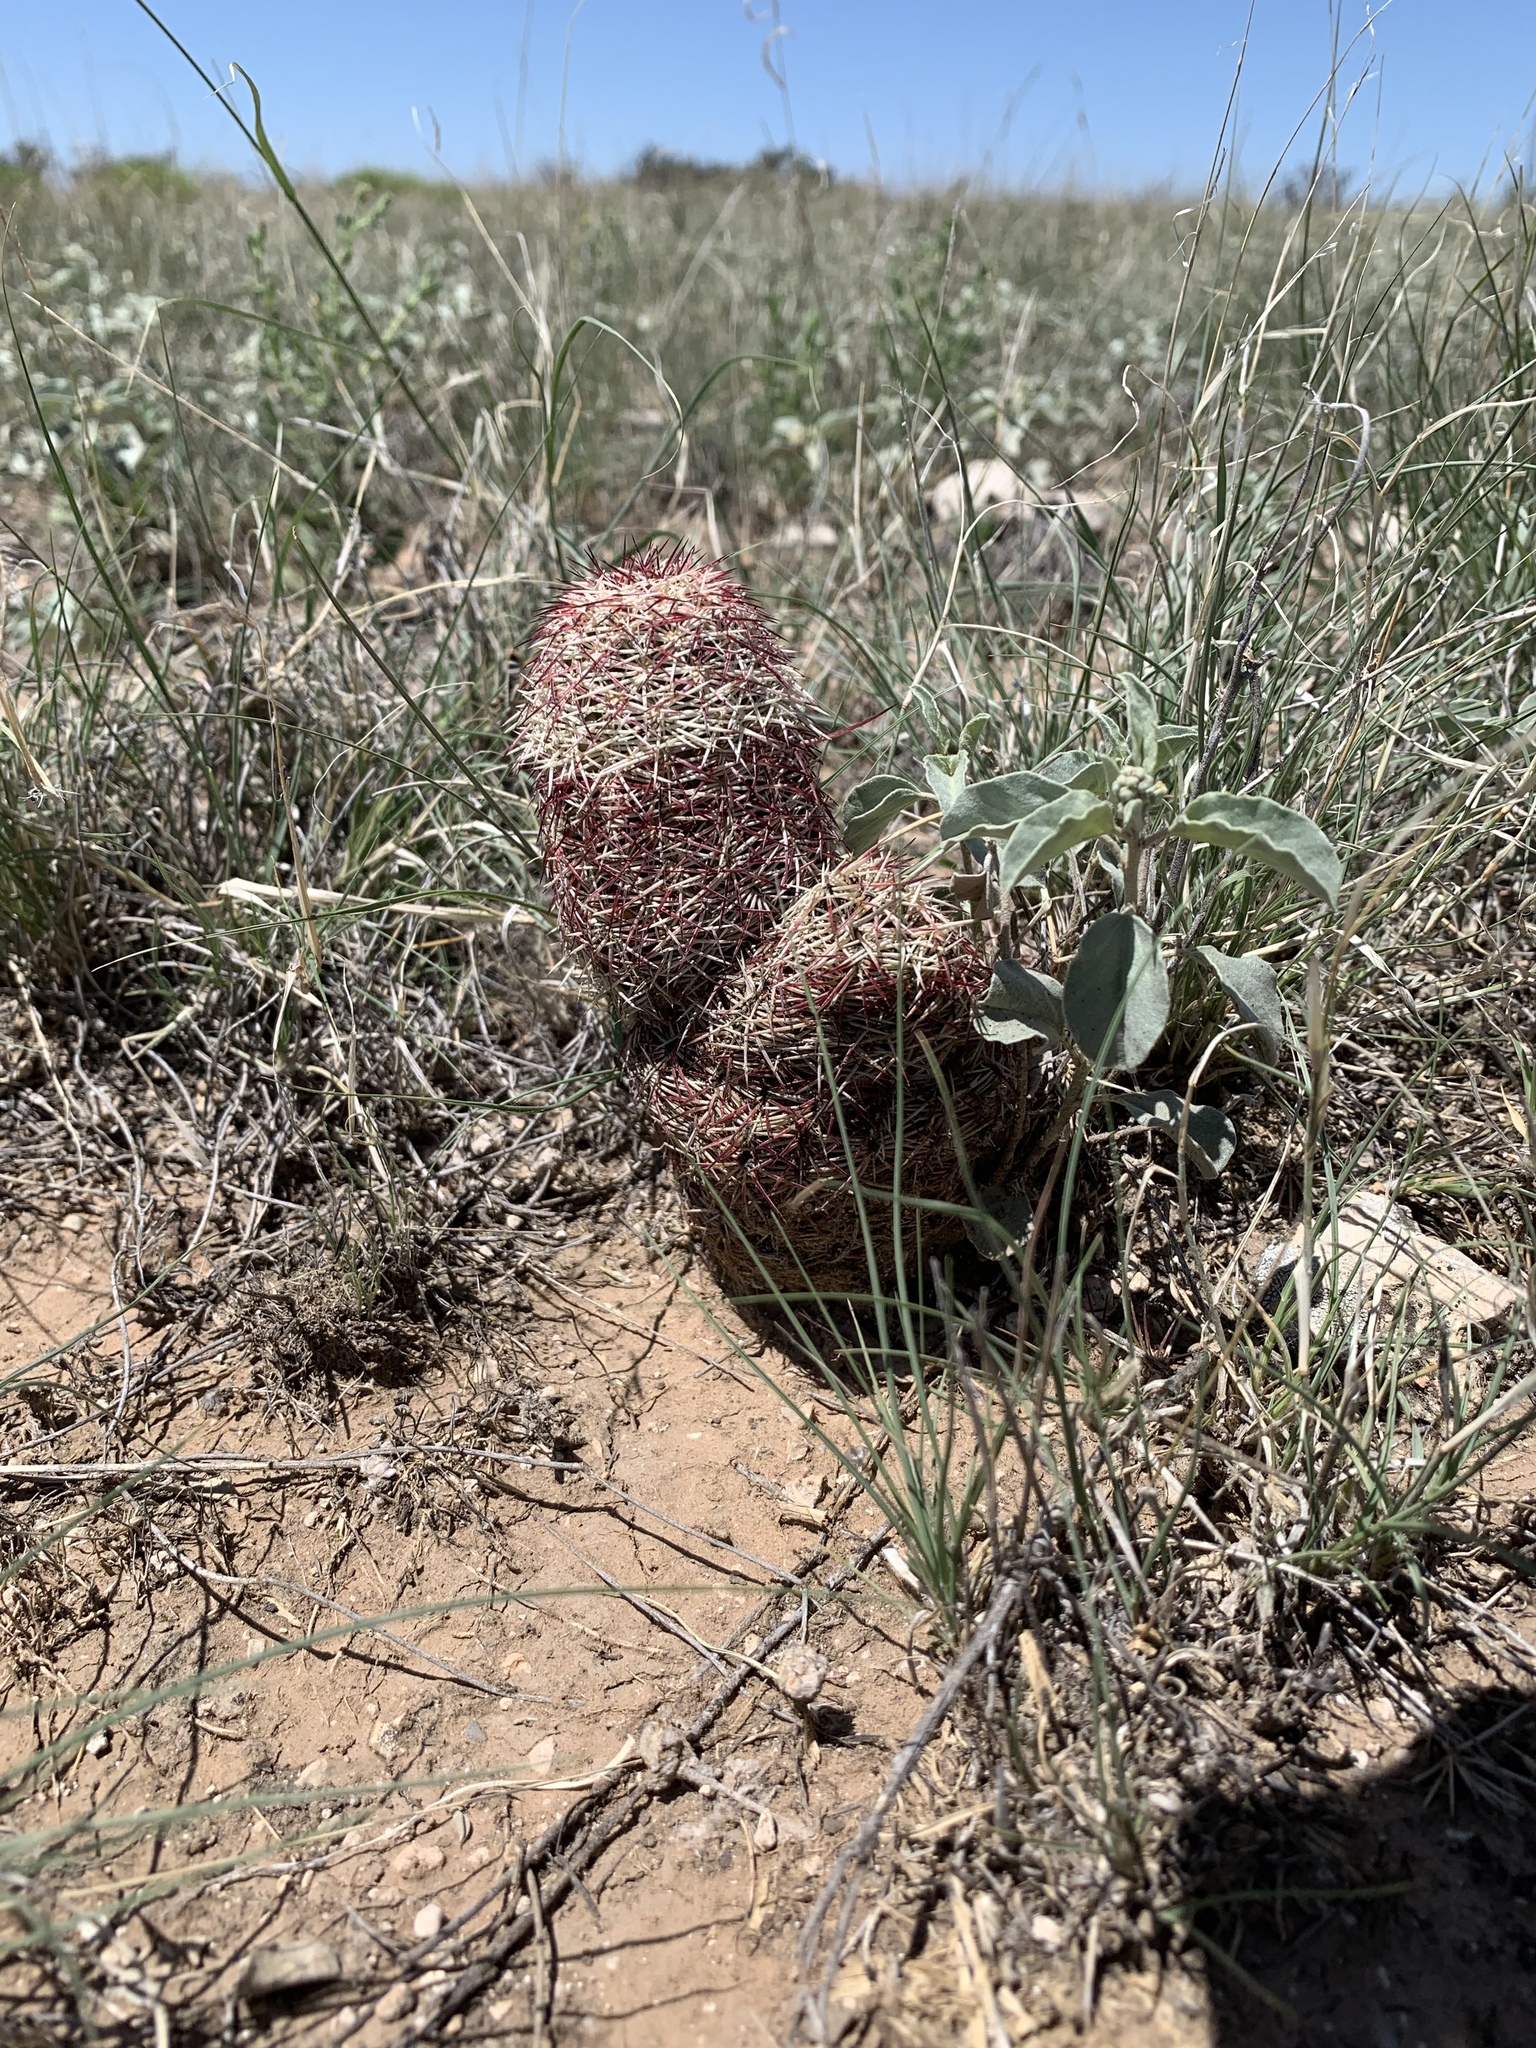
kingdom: Plantae
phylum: Tracheophyta
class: Magnoliopsida
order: Caryophyllales
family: Cactaceae
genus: Echinocereus
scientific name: Echinocereus viridiflorus
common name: Nylon hedgehog cactus
